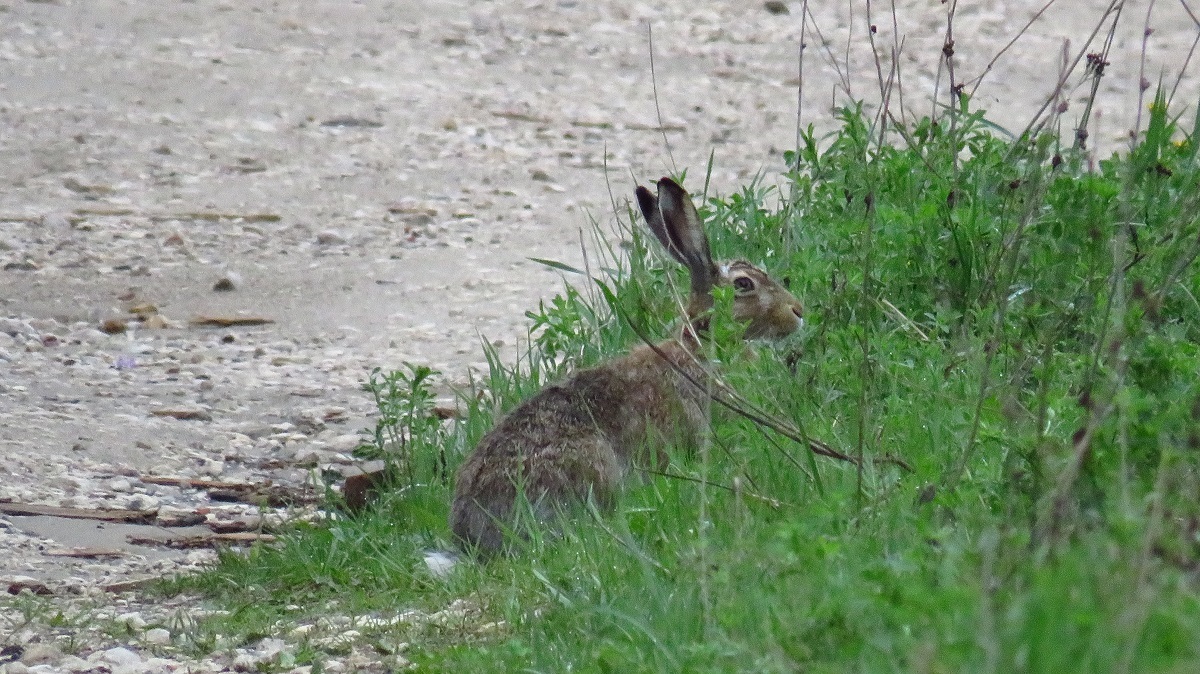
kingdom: Animalia
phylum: Chordata
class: Mammalia
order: Lagomorpha
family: Leporidae
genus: Lepus
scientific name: Lepus europaeus
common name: European hare
